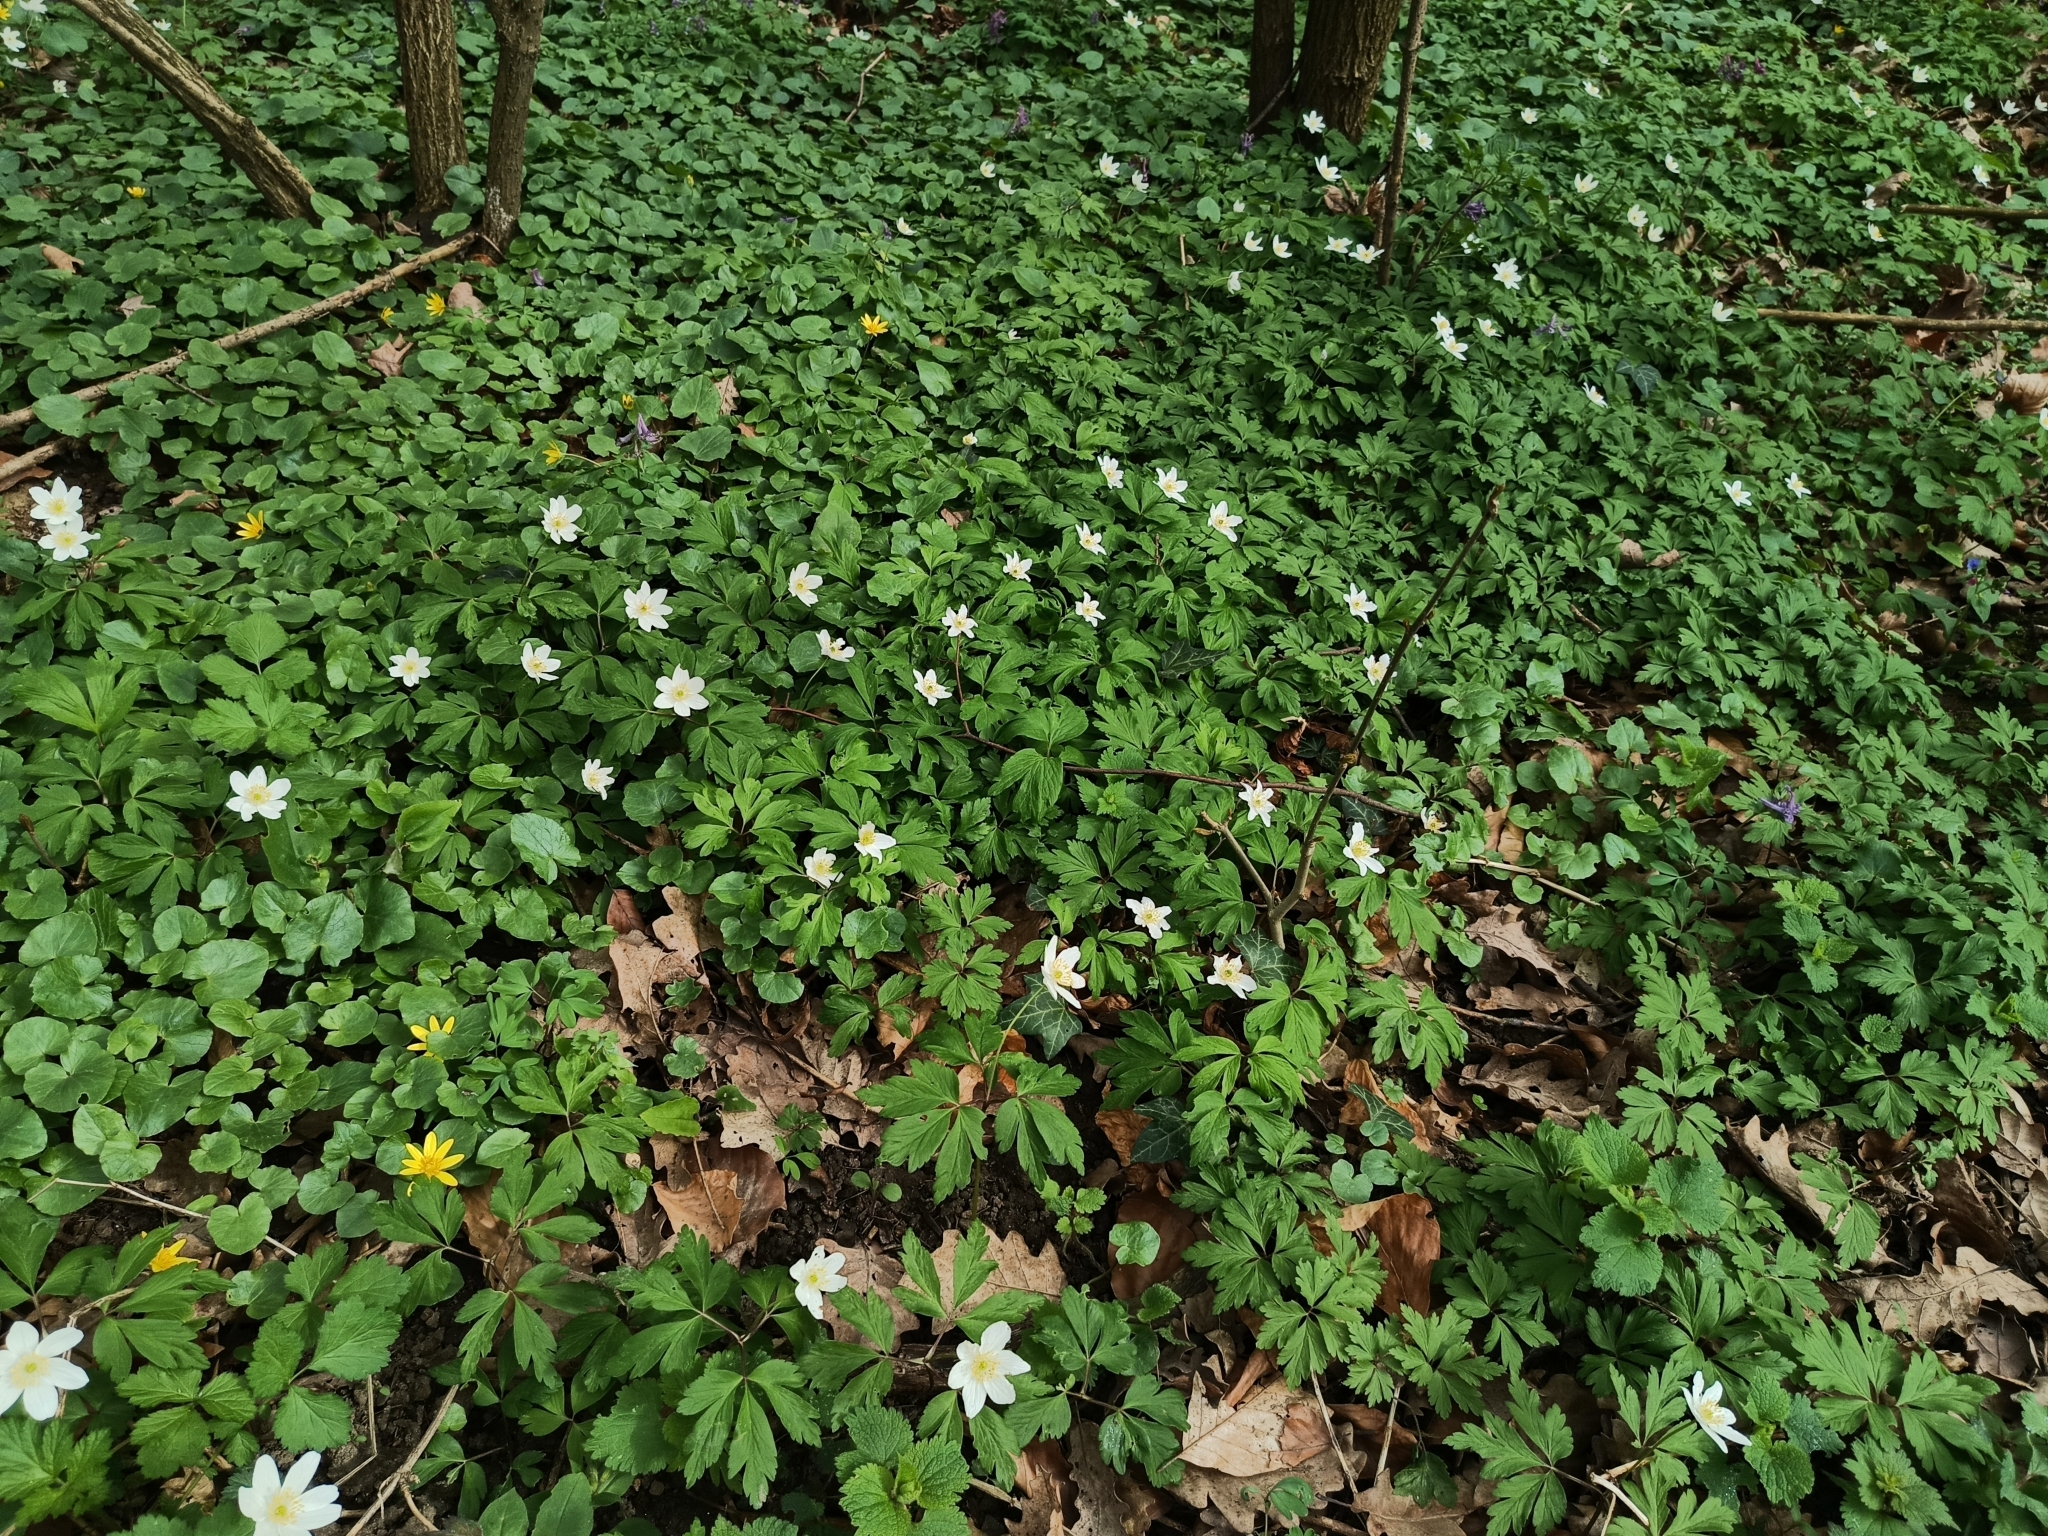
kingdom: Plantae
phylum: Tracheophyta
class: Magnoliopsida
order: Ranunculales
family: Ranunculaceae
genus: Anemone
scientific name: Anemone nemorosa
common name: Wood anemone
